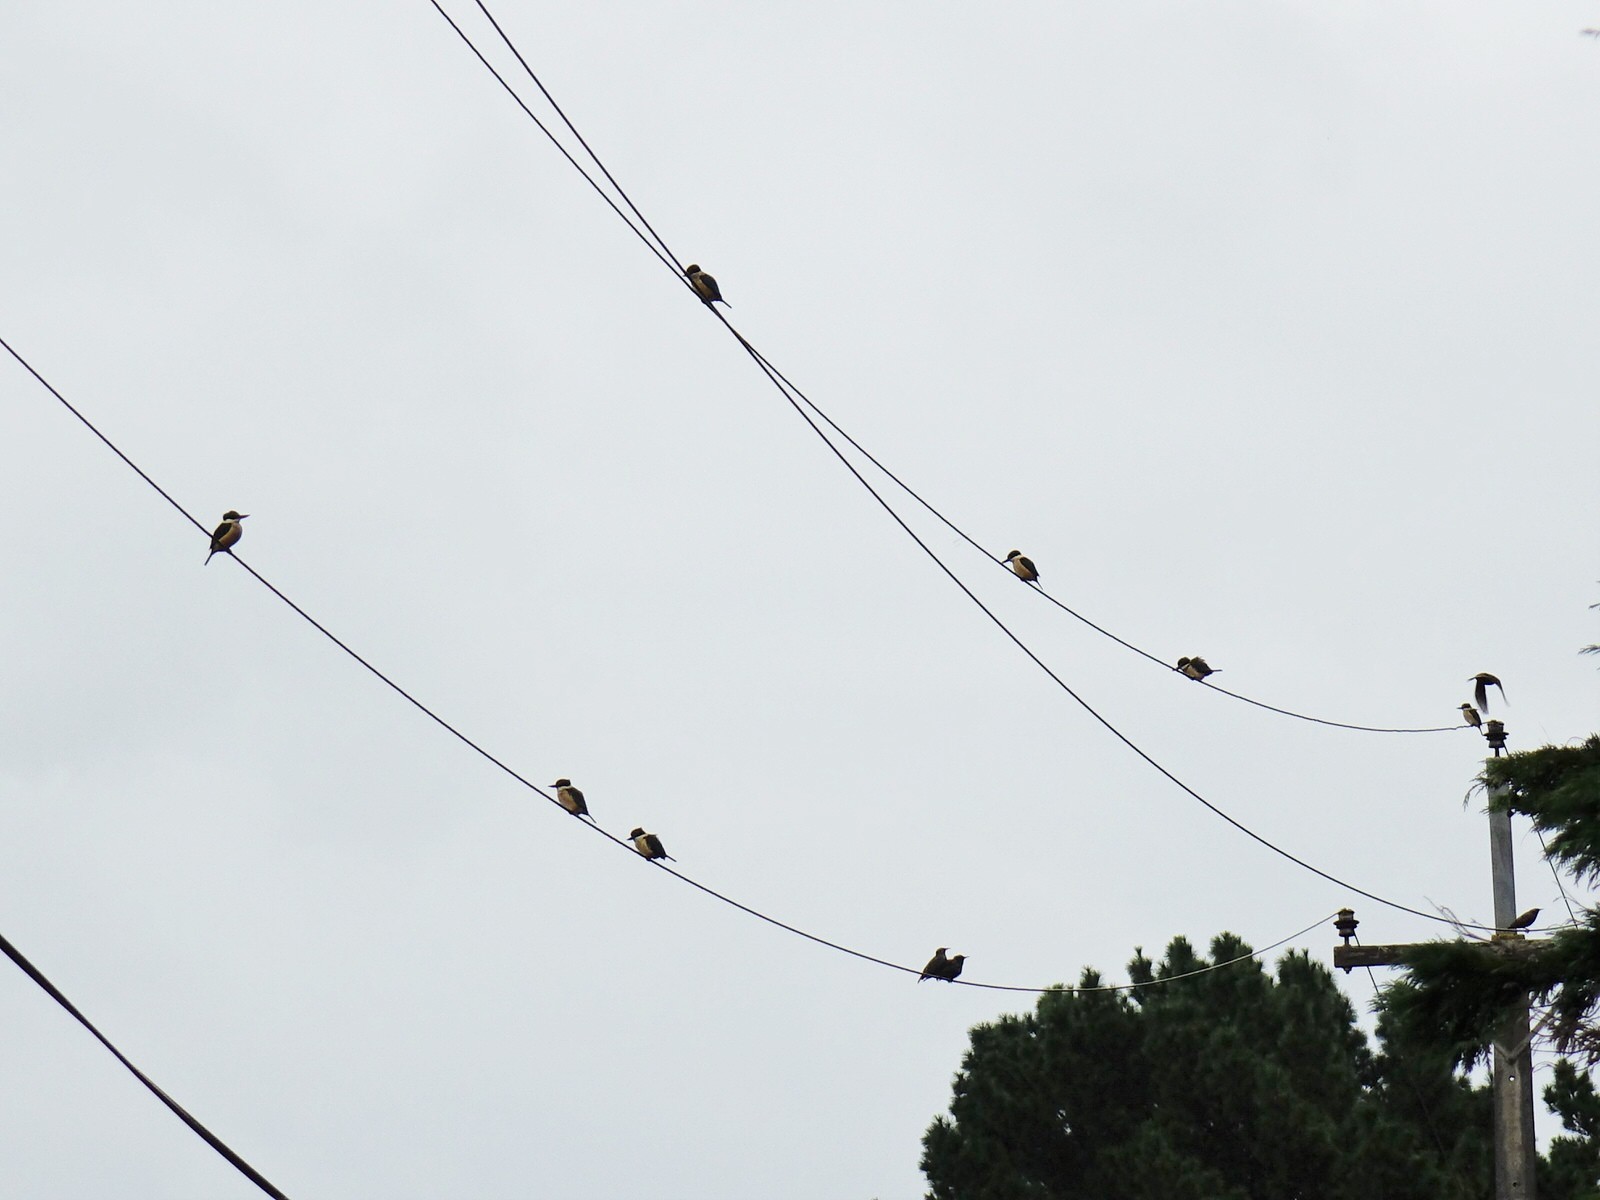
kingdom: Animalia
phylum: Chordata
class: Aves
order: Coraciiformes
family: Alcedinidae
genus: Todiramphus
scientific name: Todiramphus sanctus
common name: Sacred kingfisher
